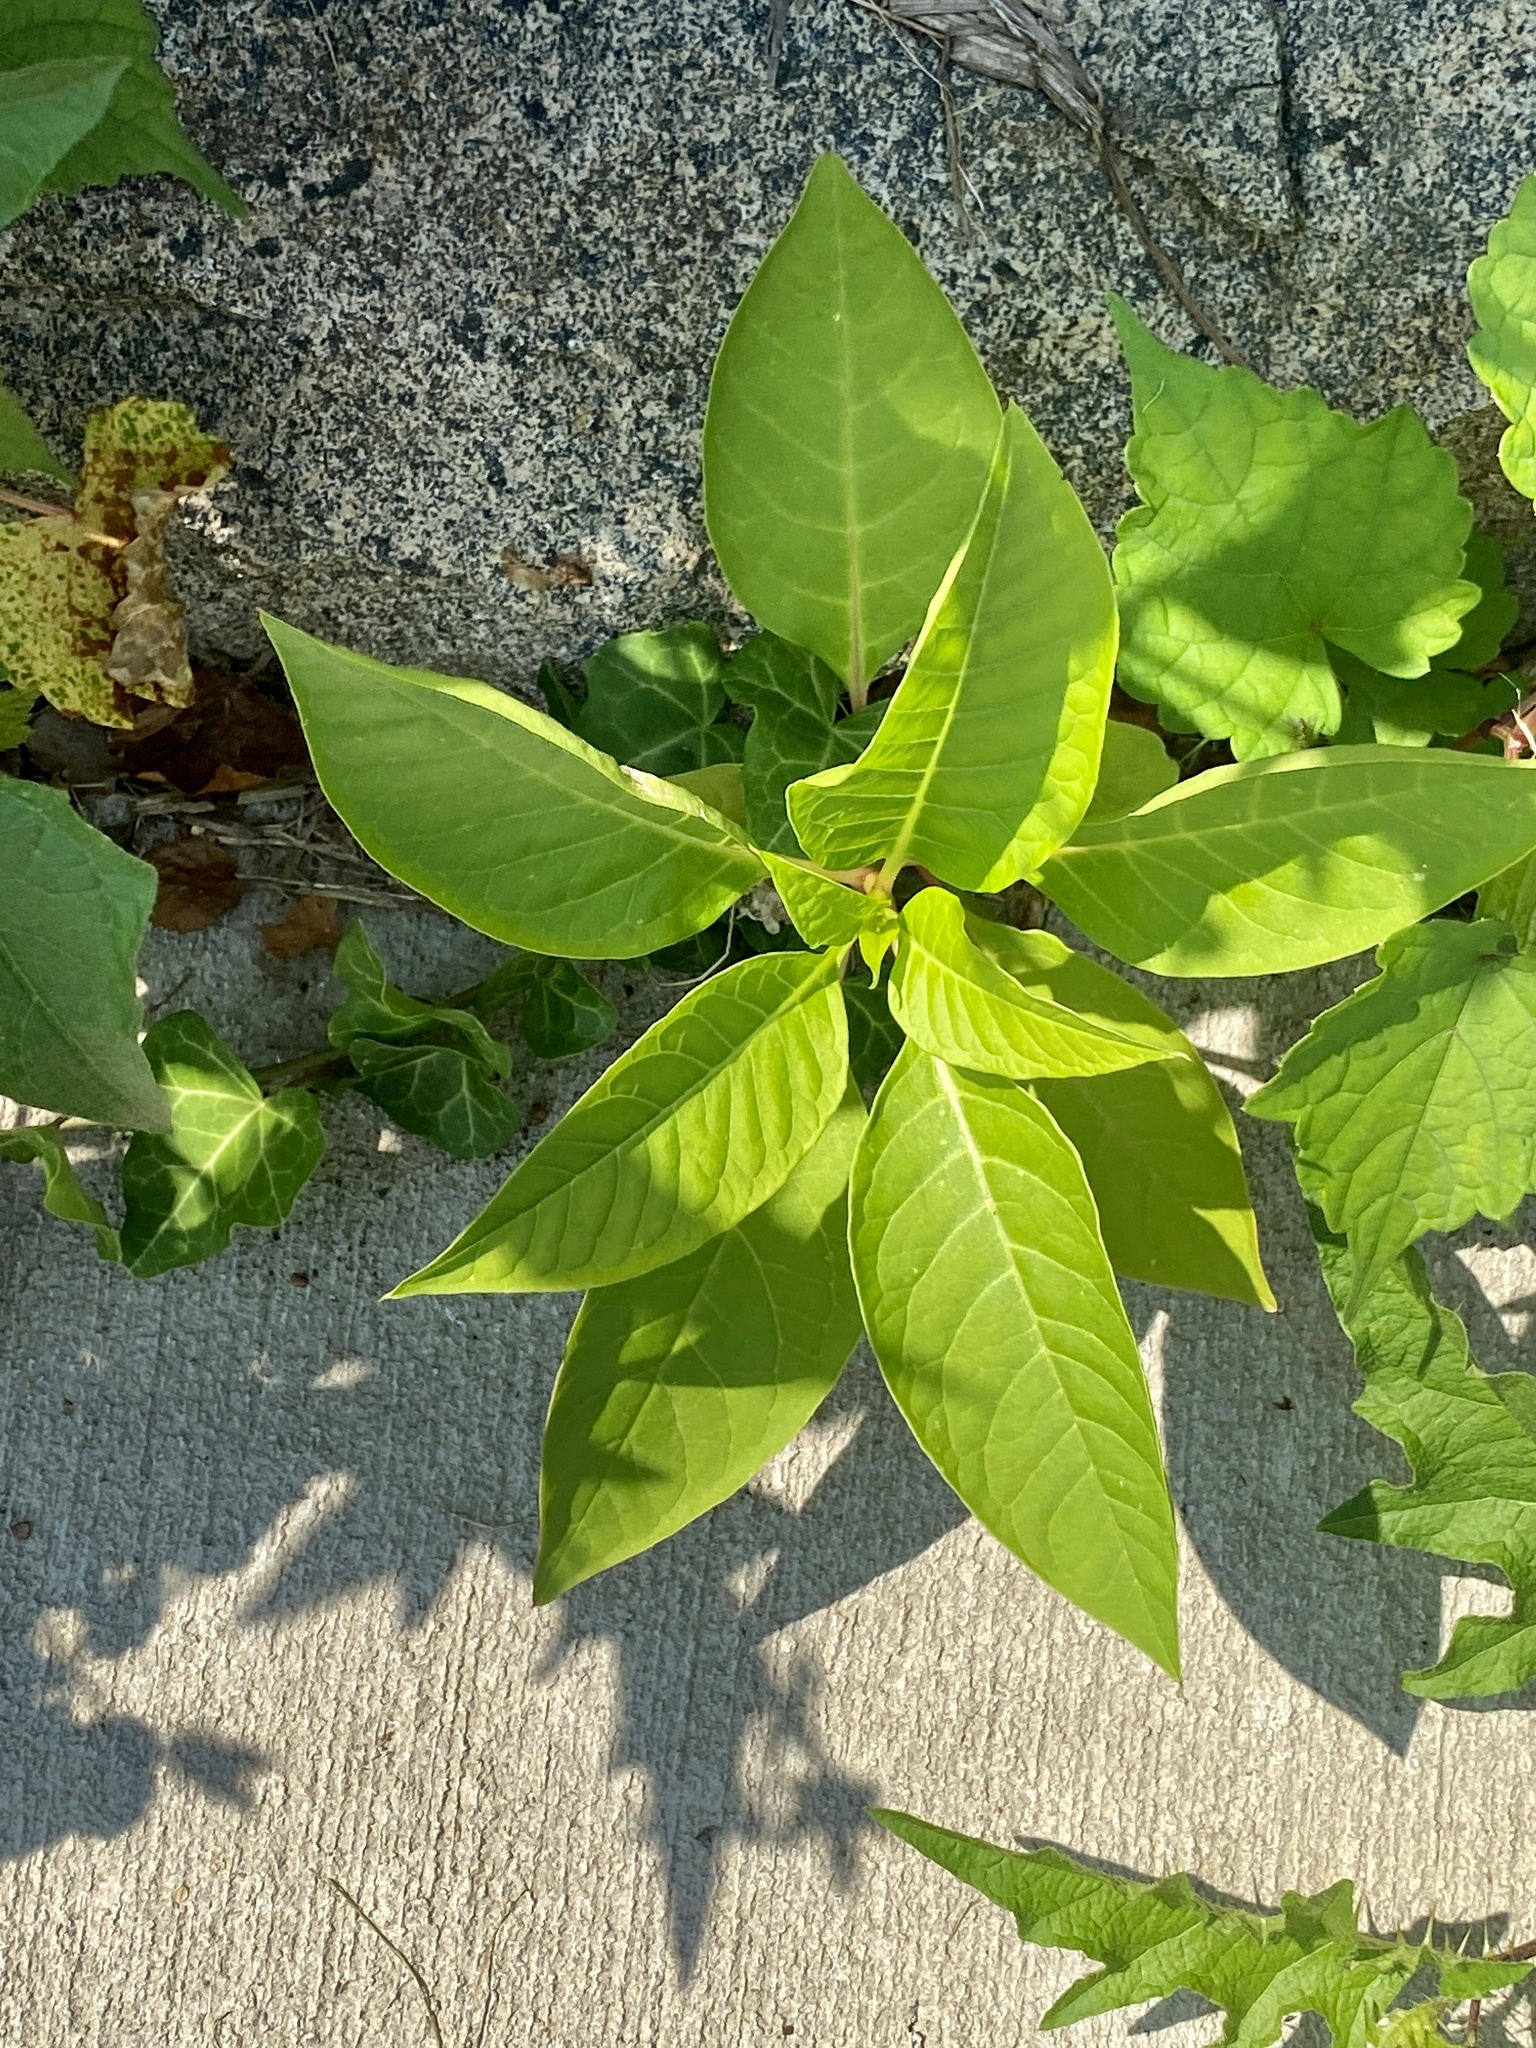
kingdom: Plantae
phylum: Tracheophyta
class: Magnoliopsida
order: Caryophyllales
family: Phytolaccaceae
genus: Phytolacca
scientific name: Phytolacca americana
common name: American pokeweed
